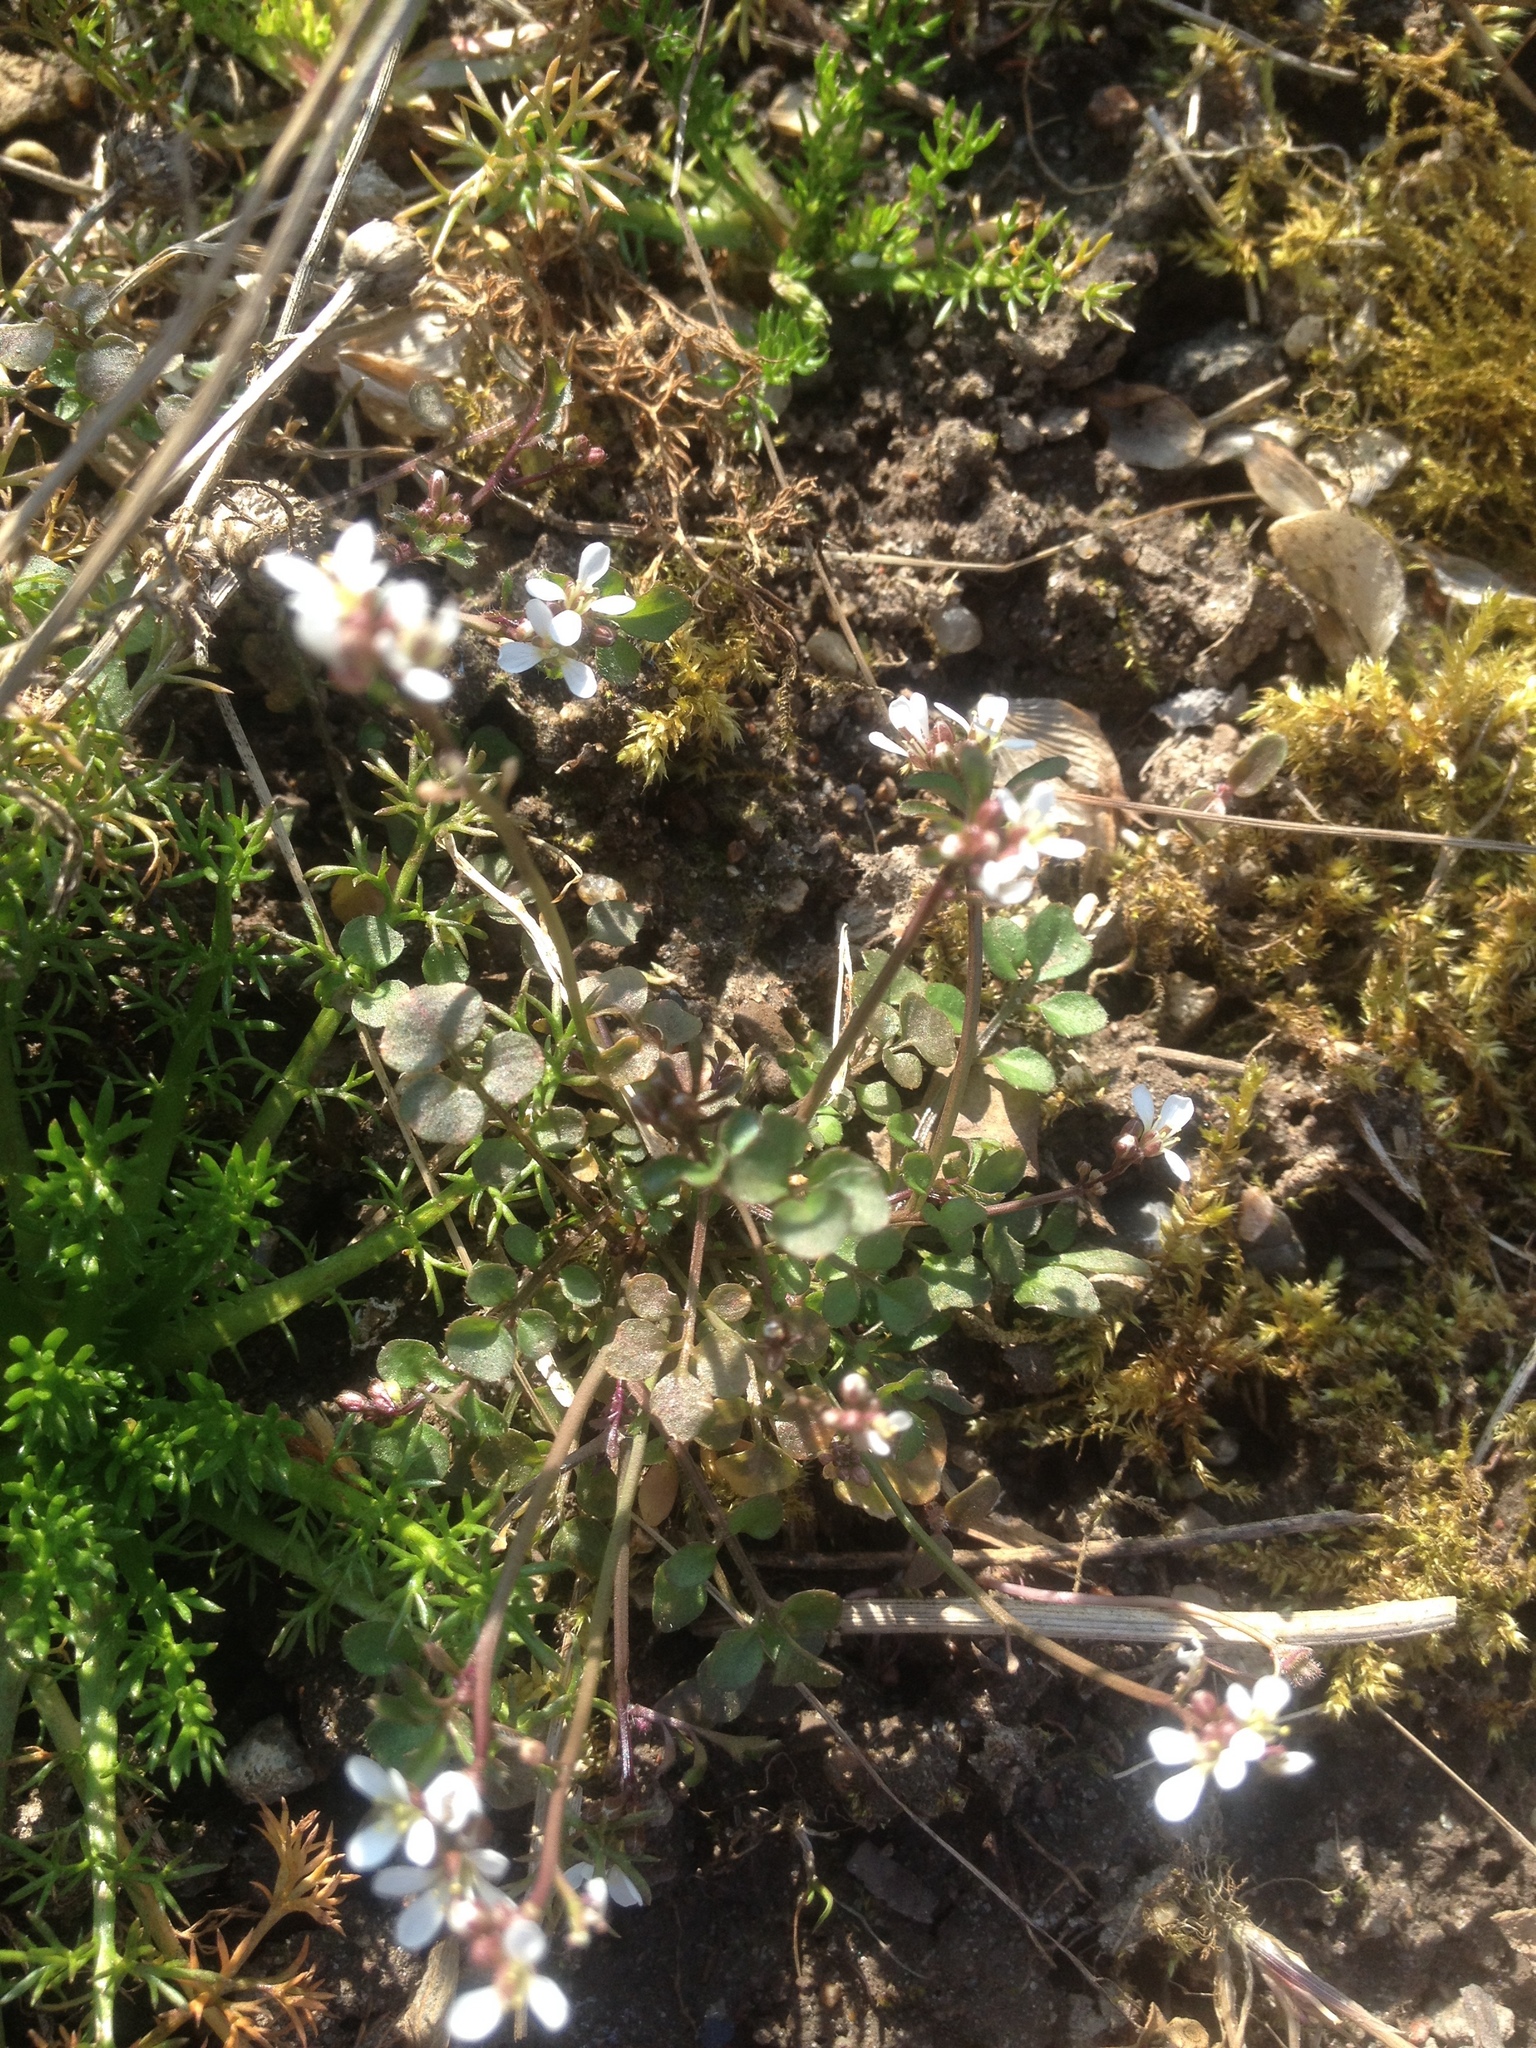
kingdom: Plantae
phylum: Tracheophyta
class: Magnoliopsida
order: Brassicales
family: Brassicaceae
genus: Cardamine
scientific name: Cardamine hirsuta
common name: Hairy bittercress
